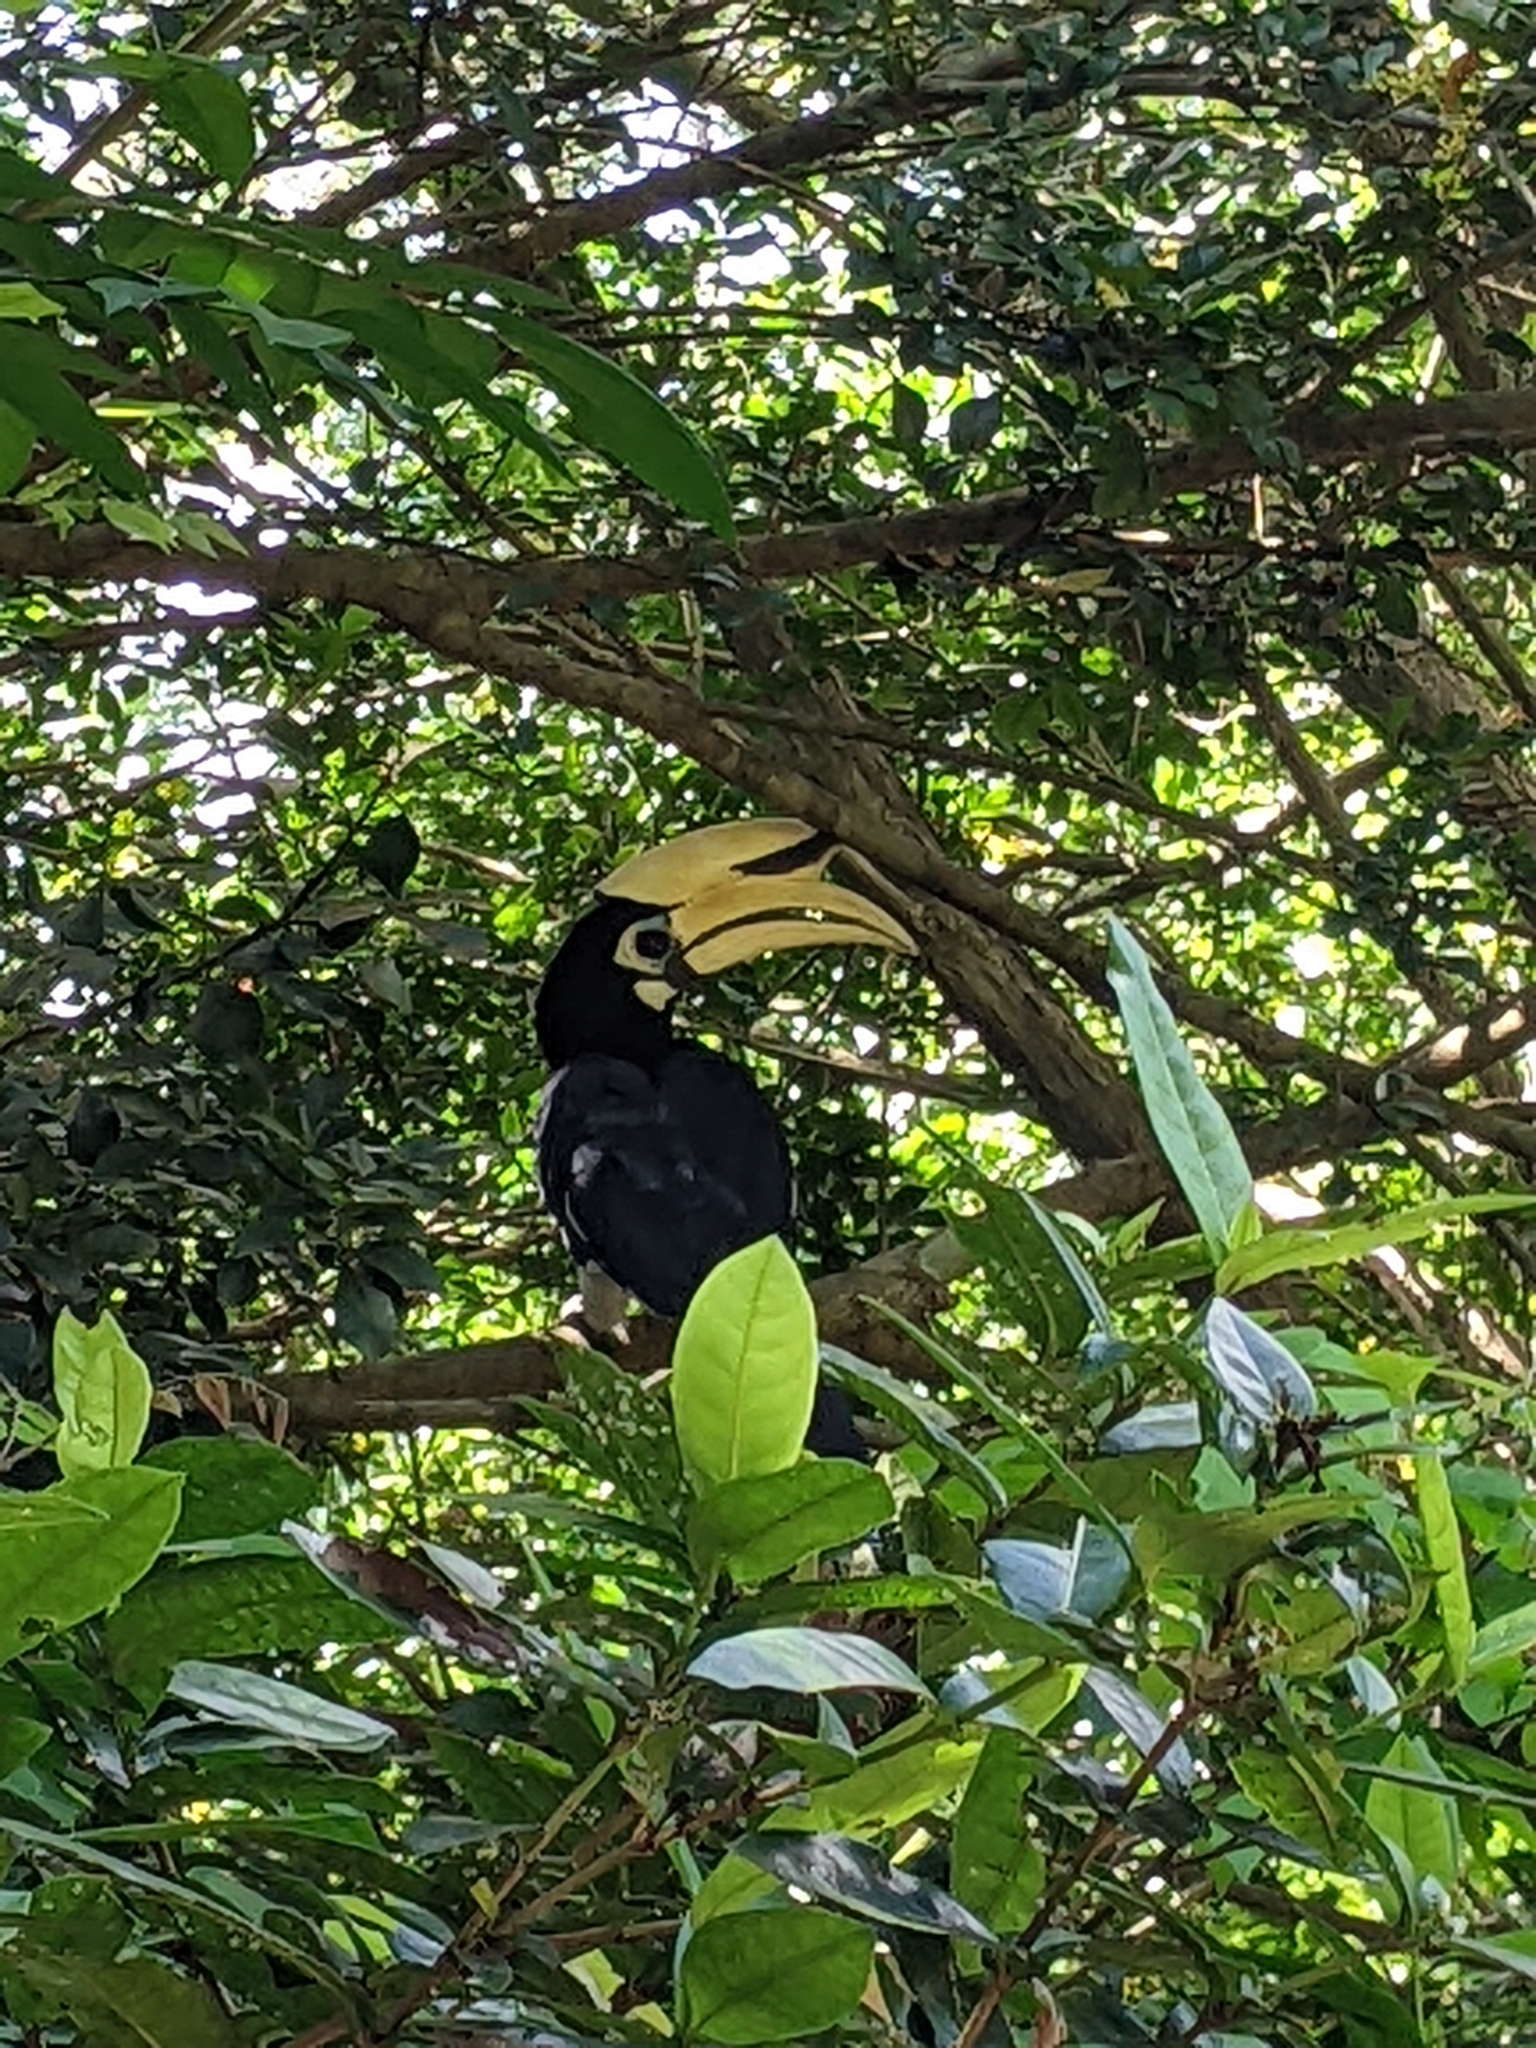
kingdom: Animalia
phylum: Chordata
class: Aves
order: Bucerotiformes
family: Bucerotidae
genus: Anthracoceros
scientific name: Anthracoceros albirostris
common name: Oriental pied-hornbill
